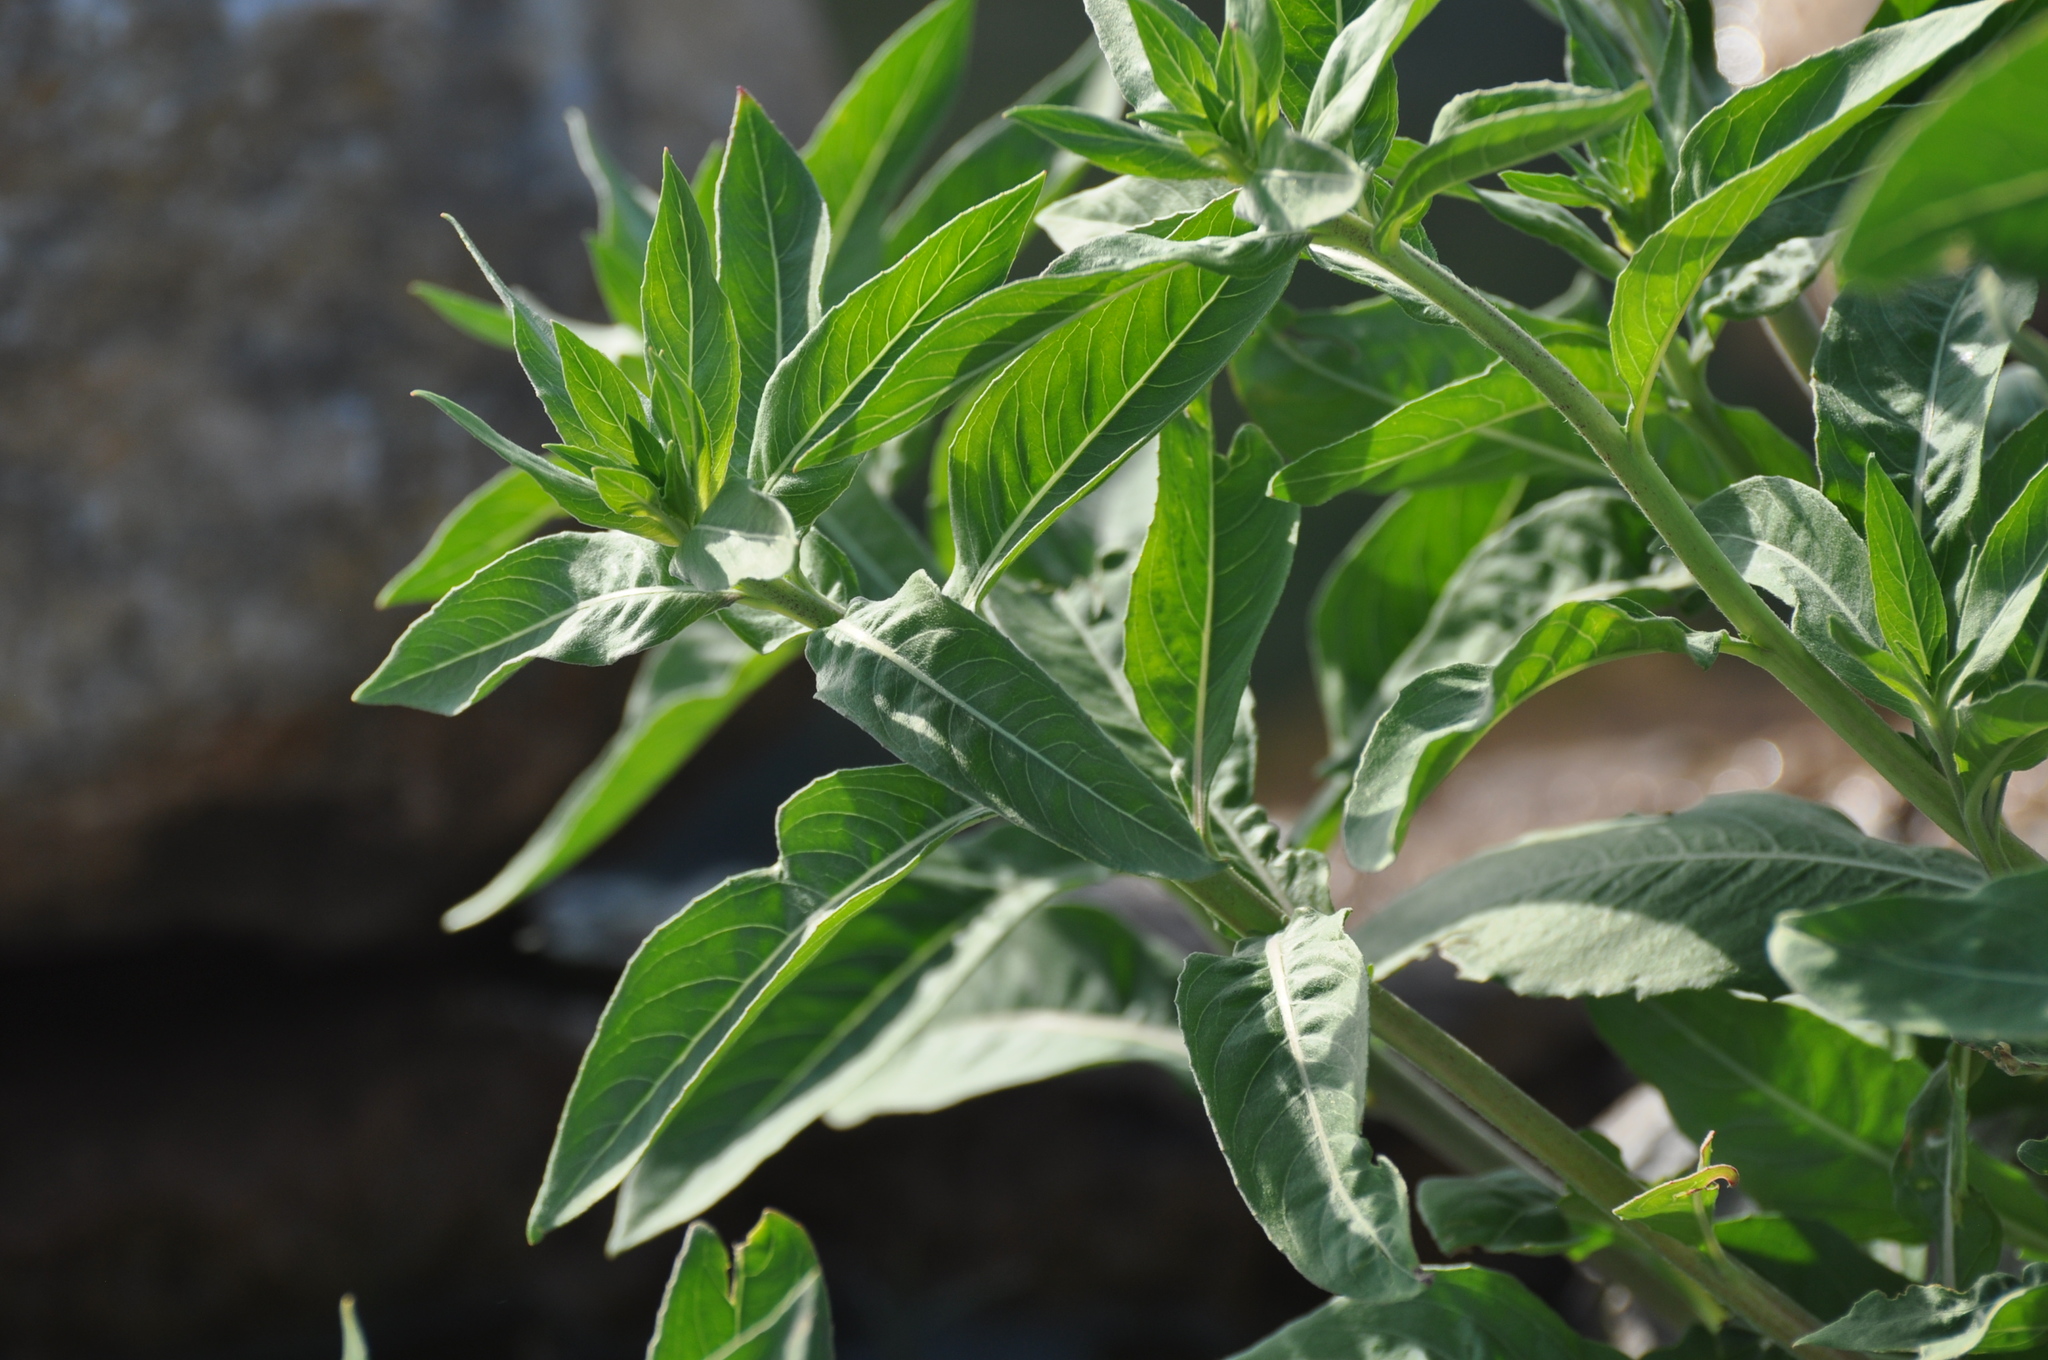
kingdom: Plantae
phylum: Tracheophyta
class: Magnoliopsida
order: Myrtales
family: Onagraceae
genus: Oenothera
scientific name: Oenothera biennis
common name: Common evening-primrose
